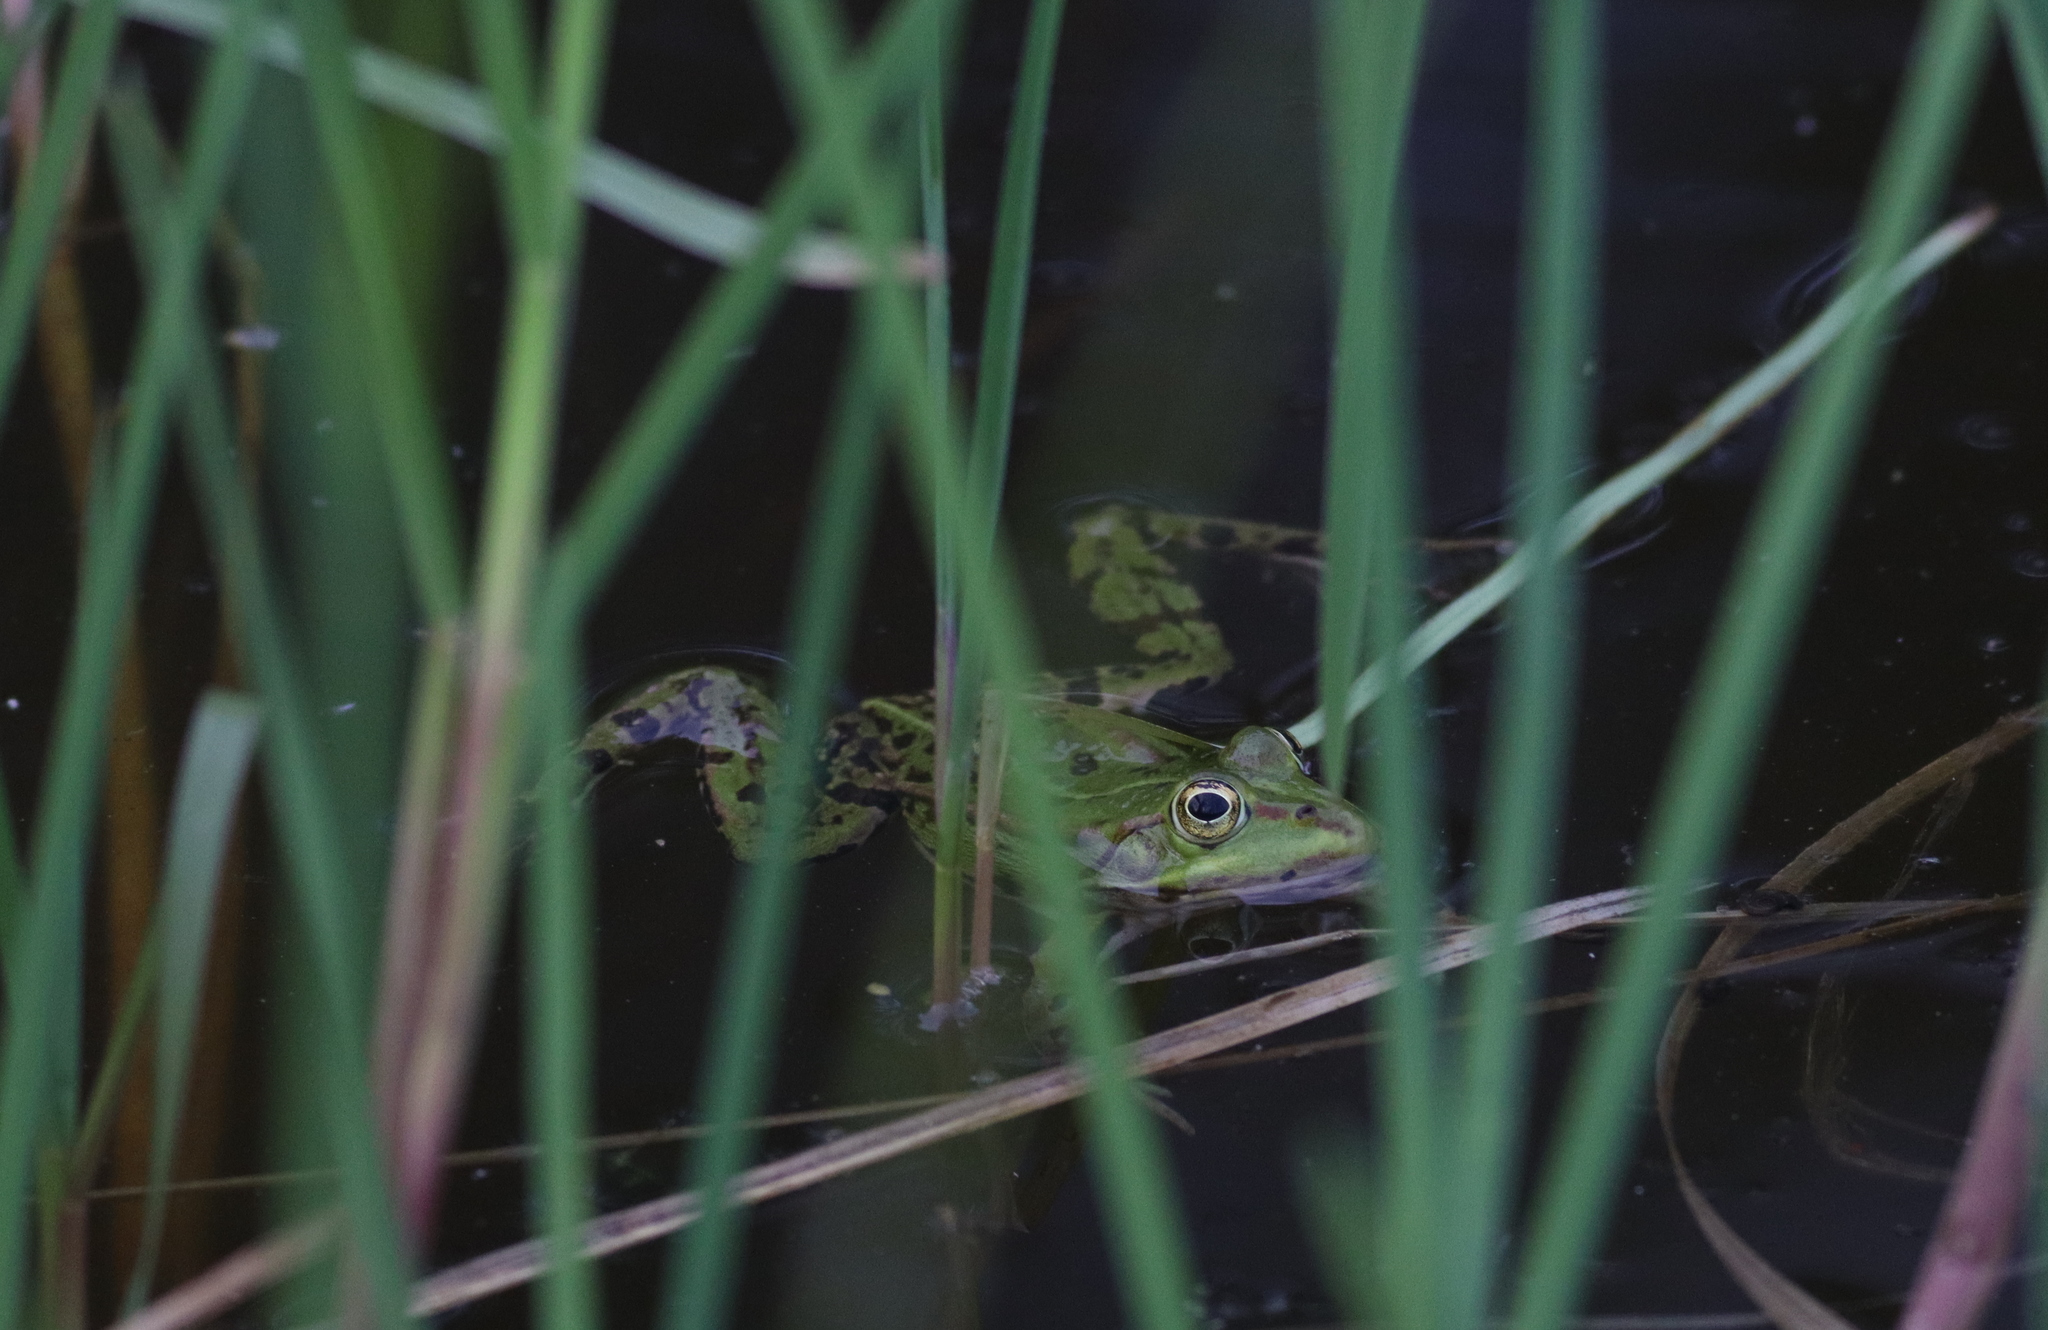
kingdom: Animalia
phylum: Chordata
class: Amphibia
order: Anura
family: Ranidae
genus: Pelophylax
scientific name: Pelophylax
